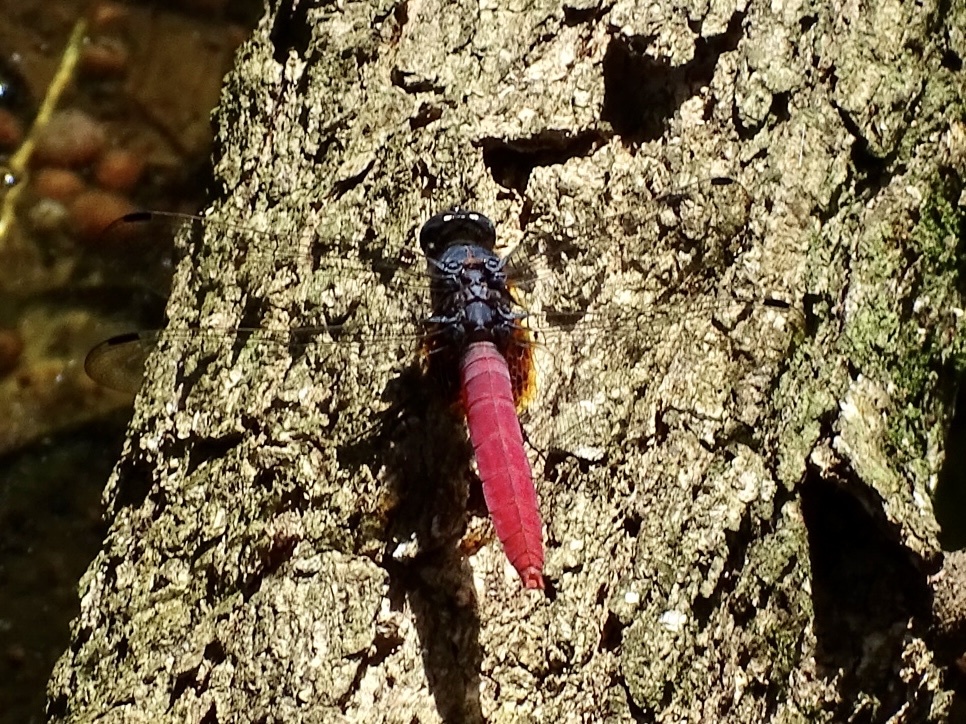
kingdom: Animalia
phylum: Arthropoda
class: Insecta
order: Odonata
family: Libellulidae
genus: Orthetrum
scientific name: Orthetrum pruinosum
